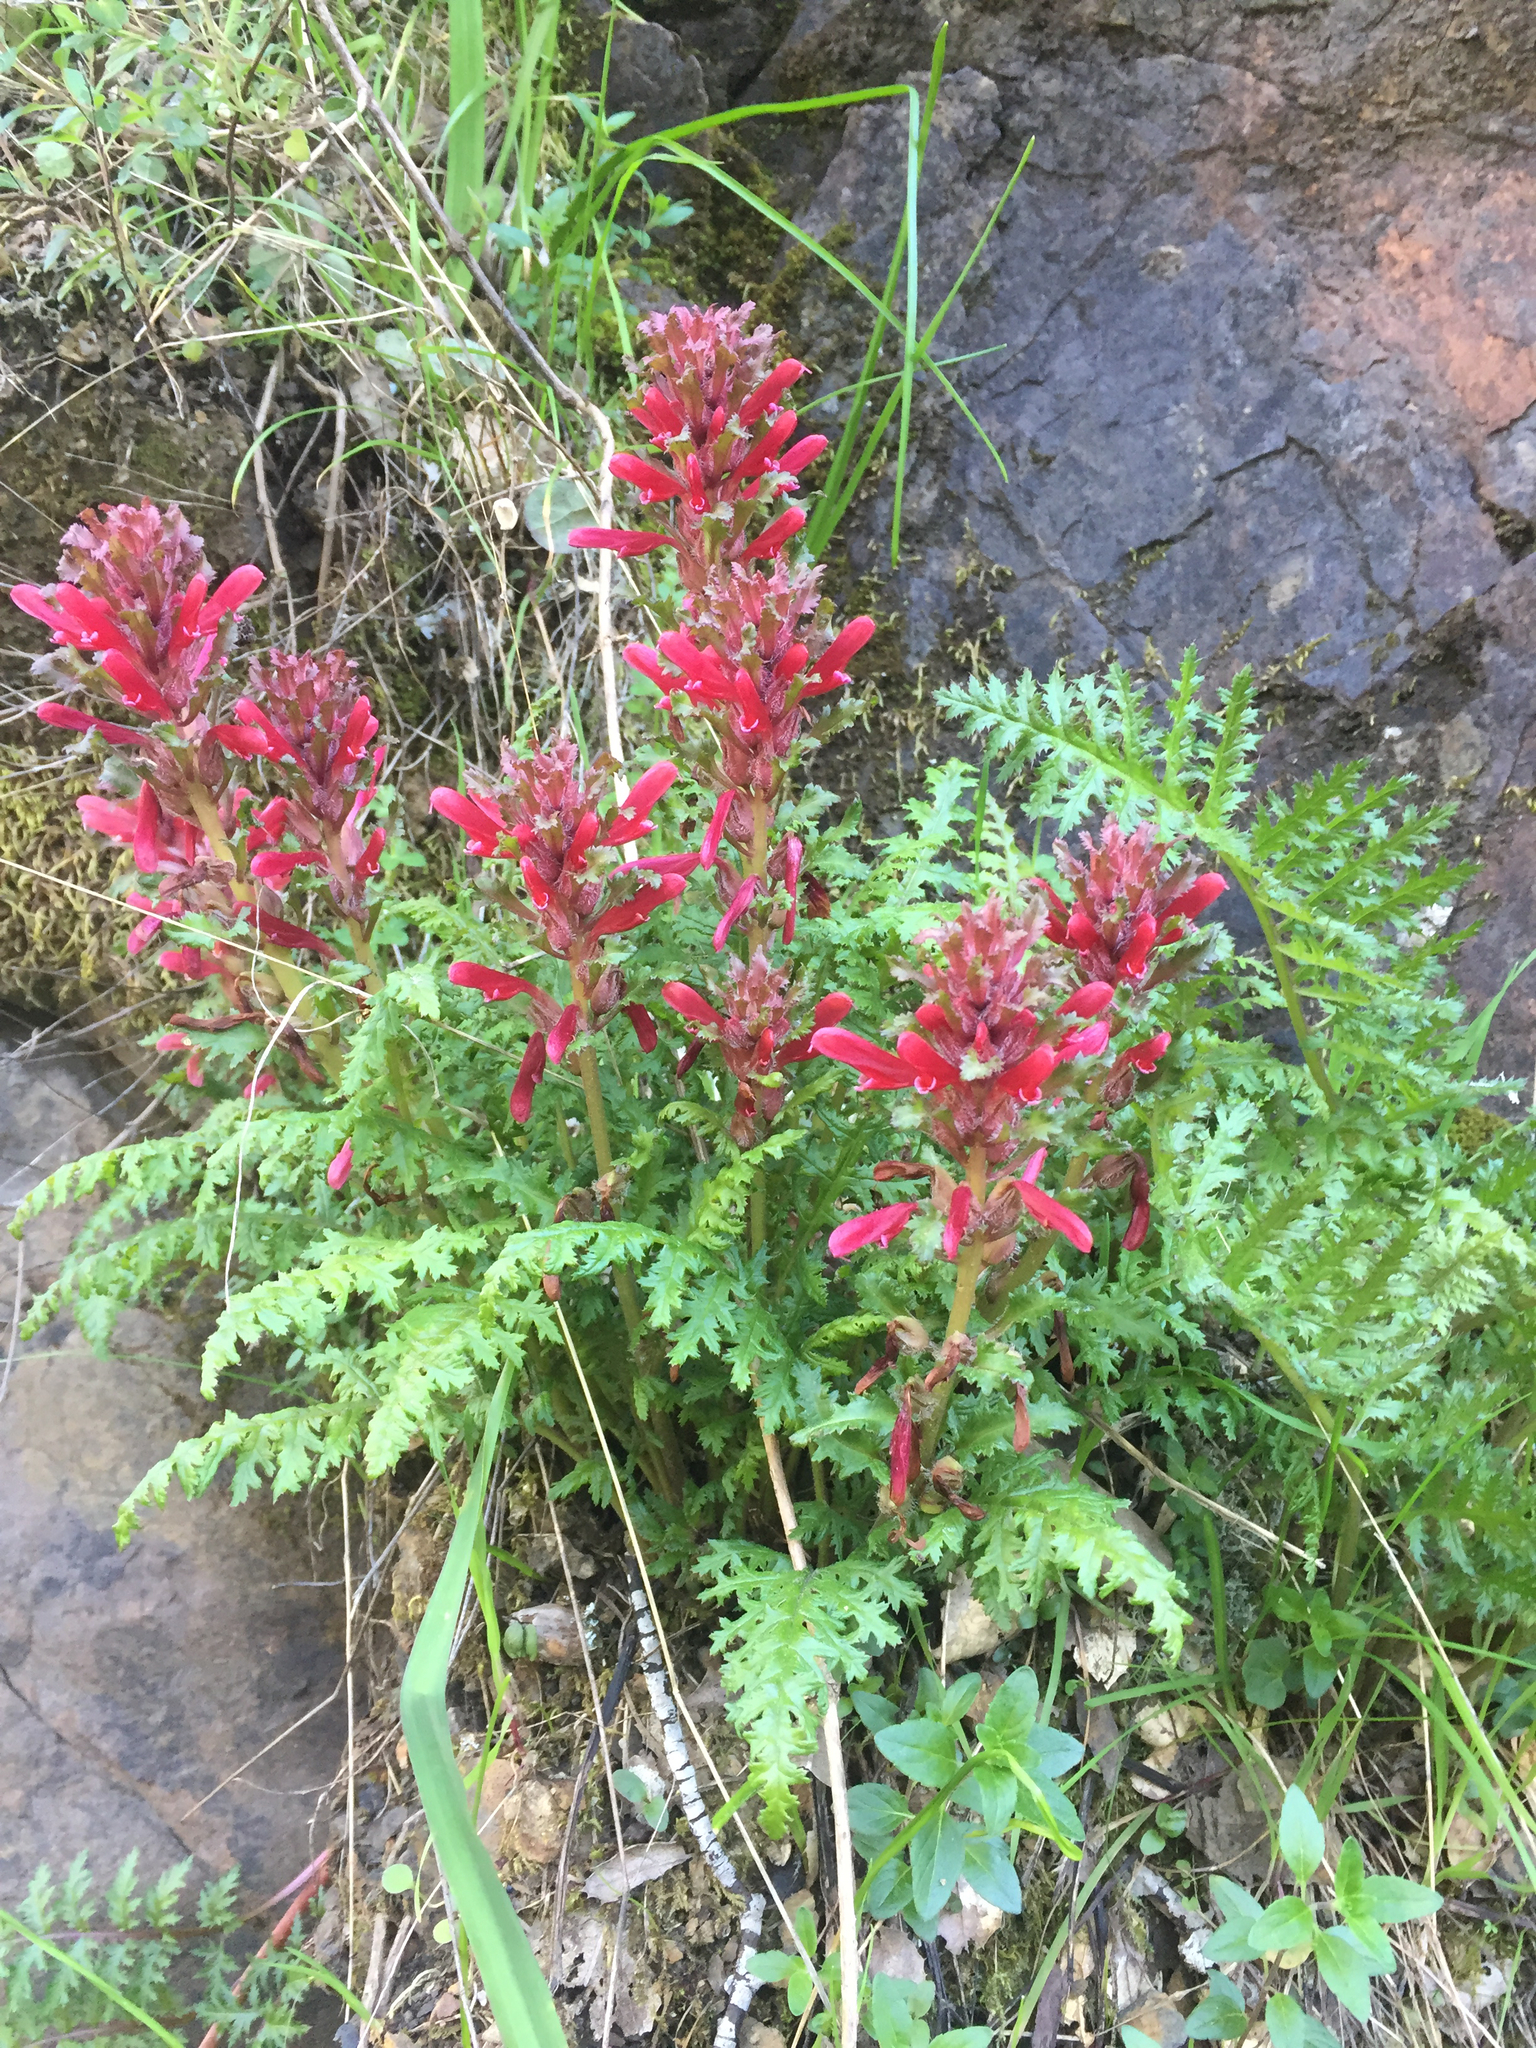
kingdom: Plantae
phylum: Tracheophyta
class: Magnoliopsida
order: Lamiales
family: Orobanchaceae
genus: Pedicularis
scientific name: Pedicularis densiflora
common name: Indian warrior
